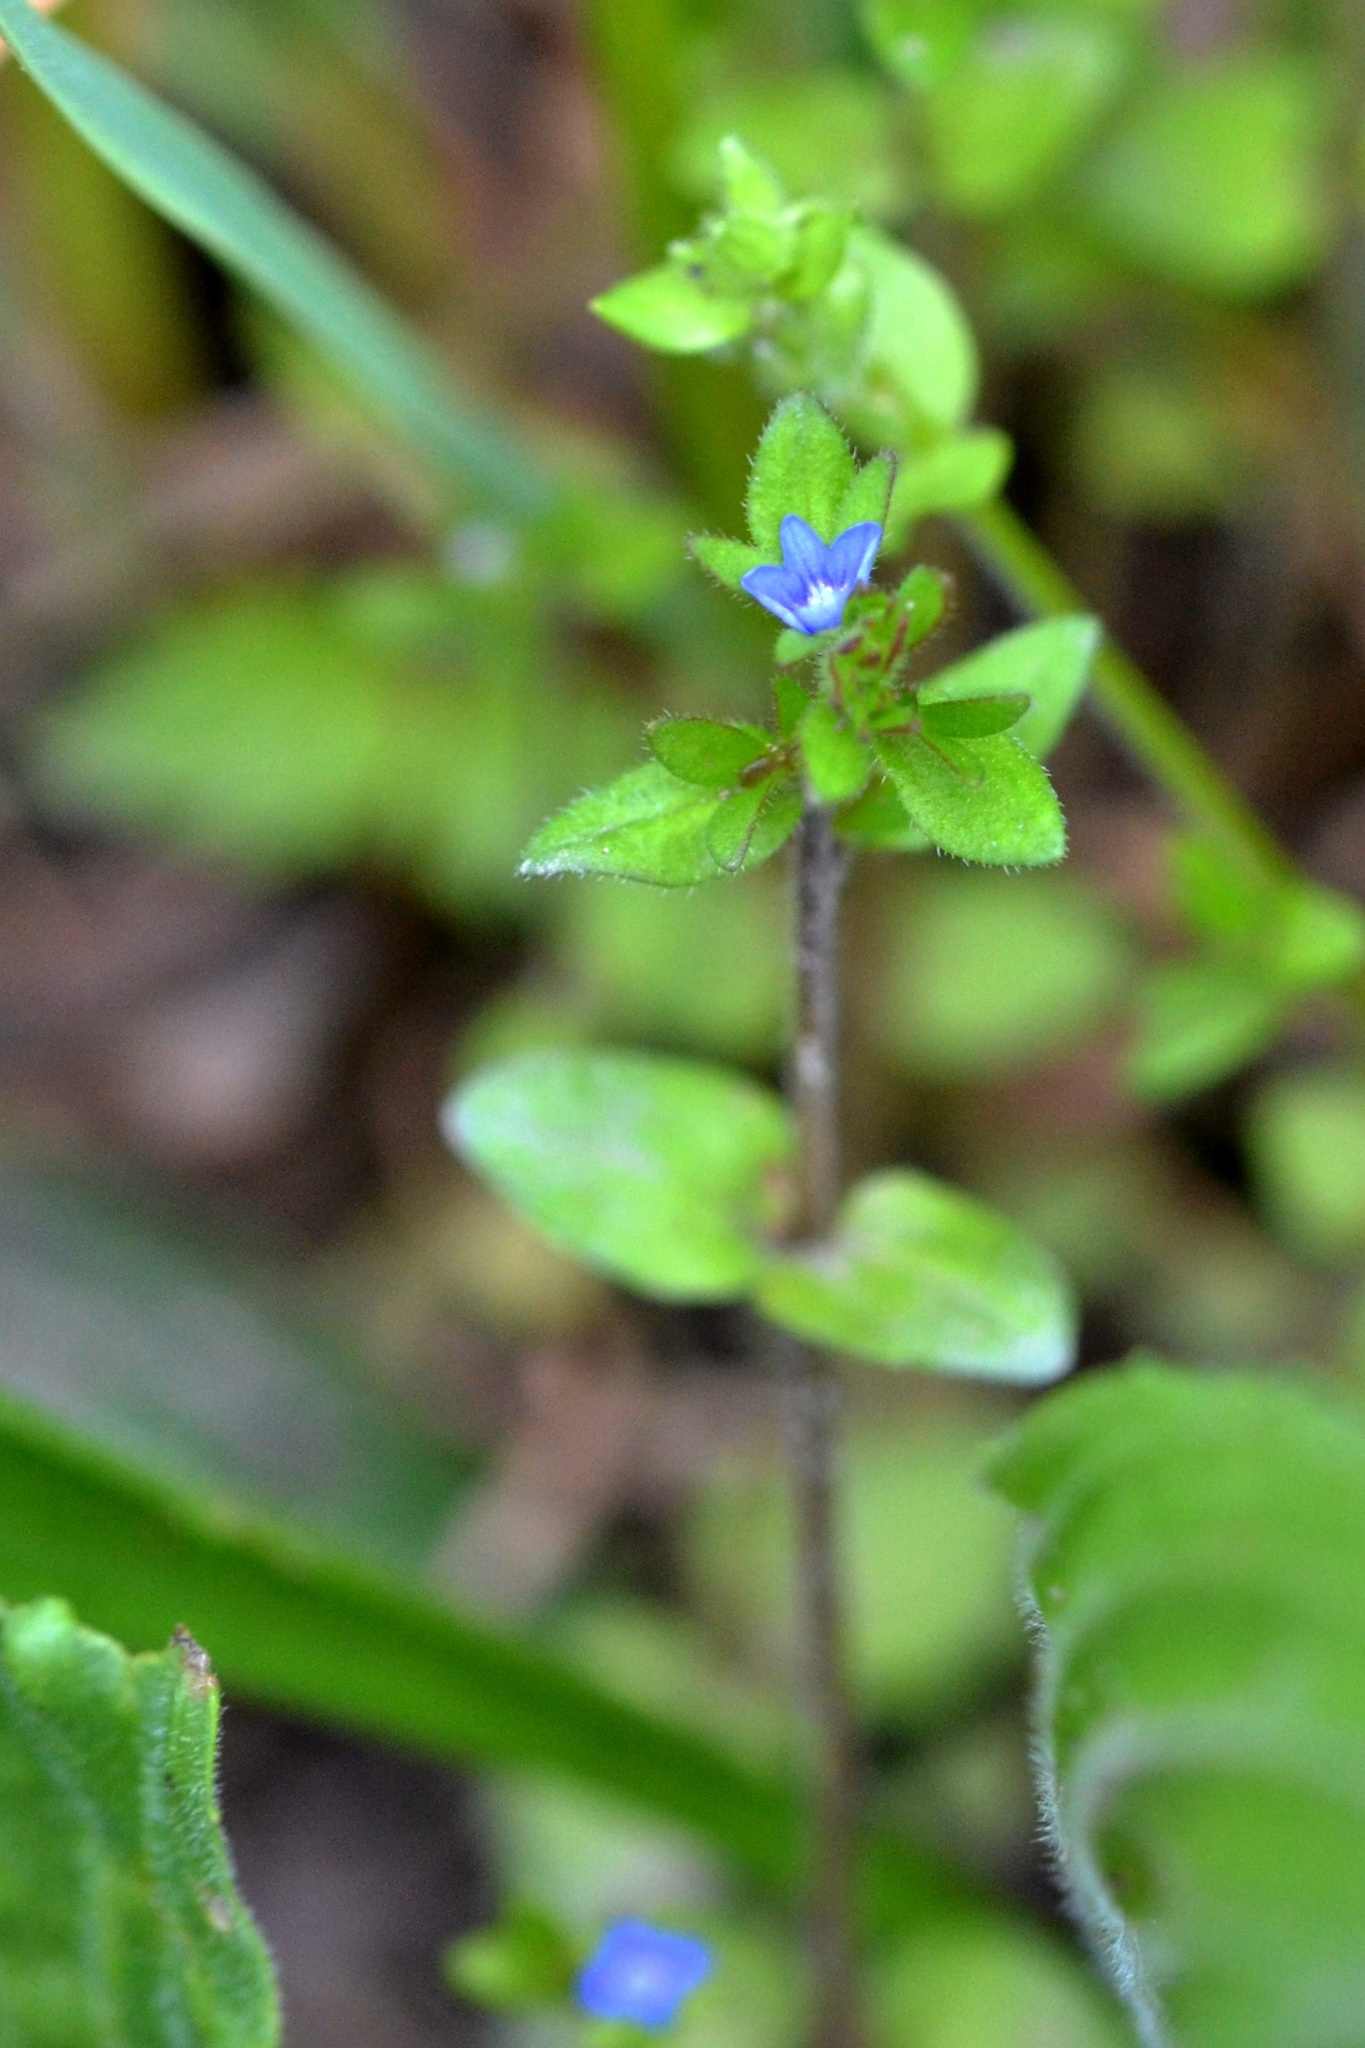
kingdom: Plantae
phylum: Tracheophyta
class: Magnoliopsida
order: Lamiales
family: Plantaginaceae
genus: Veronica
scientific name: Veronica arvensis
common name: Corn speedwell
